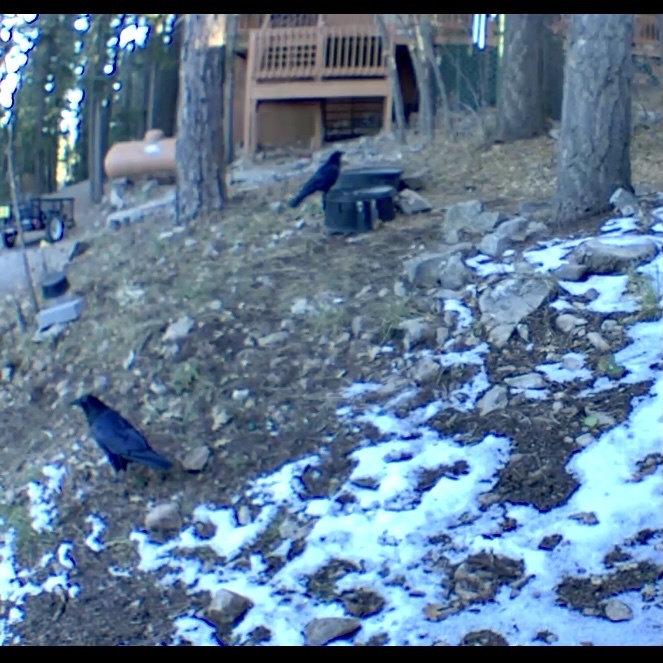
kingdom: Animalia
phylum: Chordata
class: Aves
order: Passeriformes
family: Corvidae
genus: Corvus
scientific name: Corvus corax
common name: Common raven
